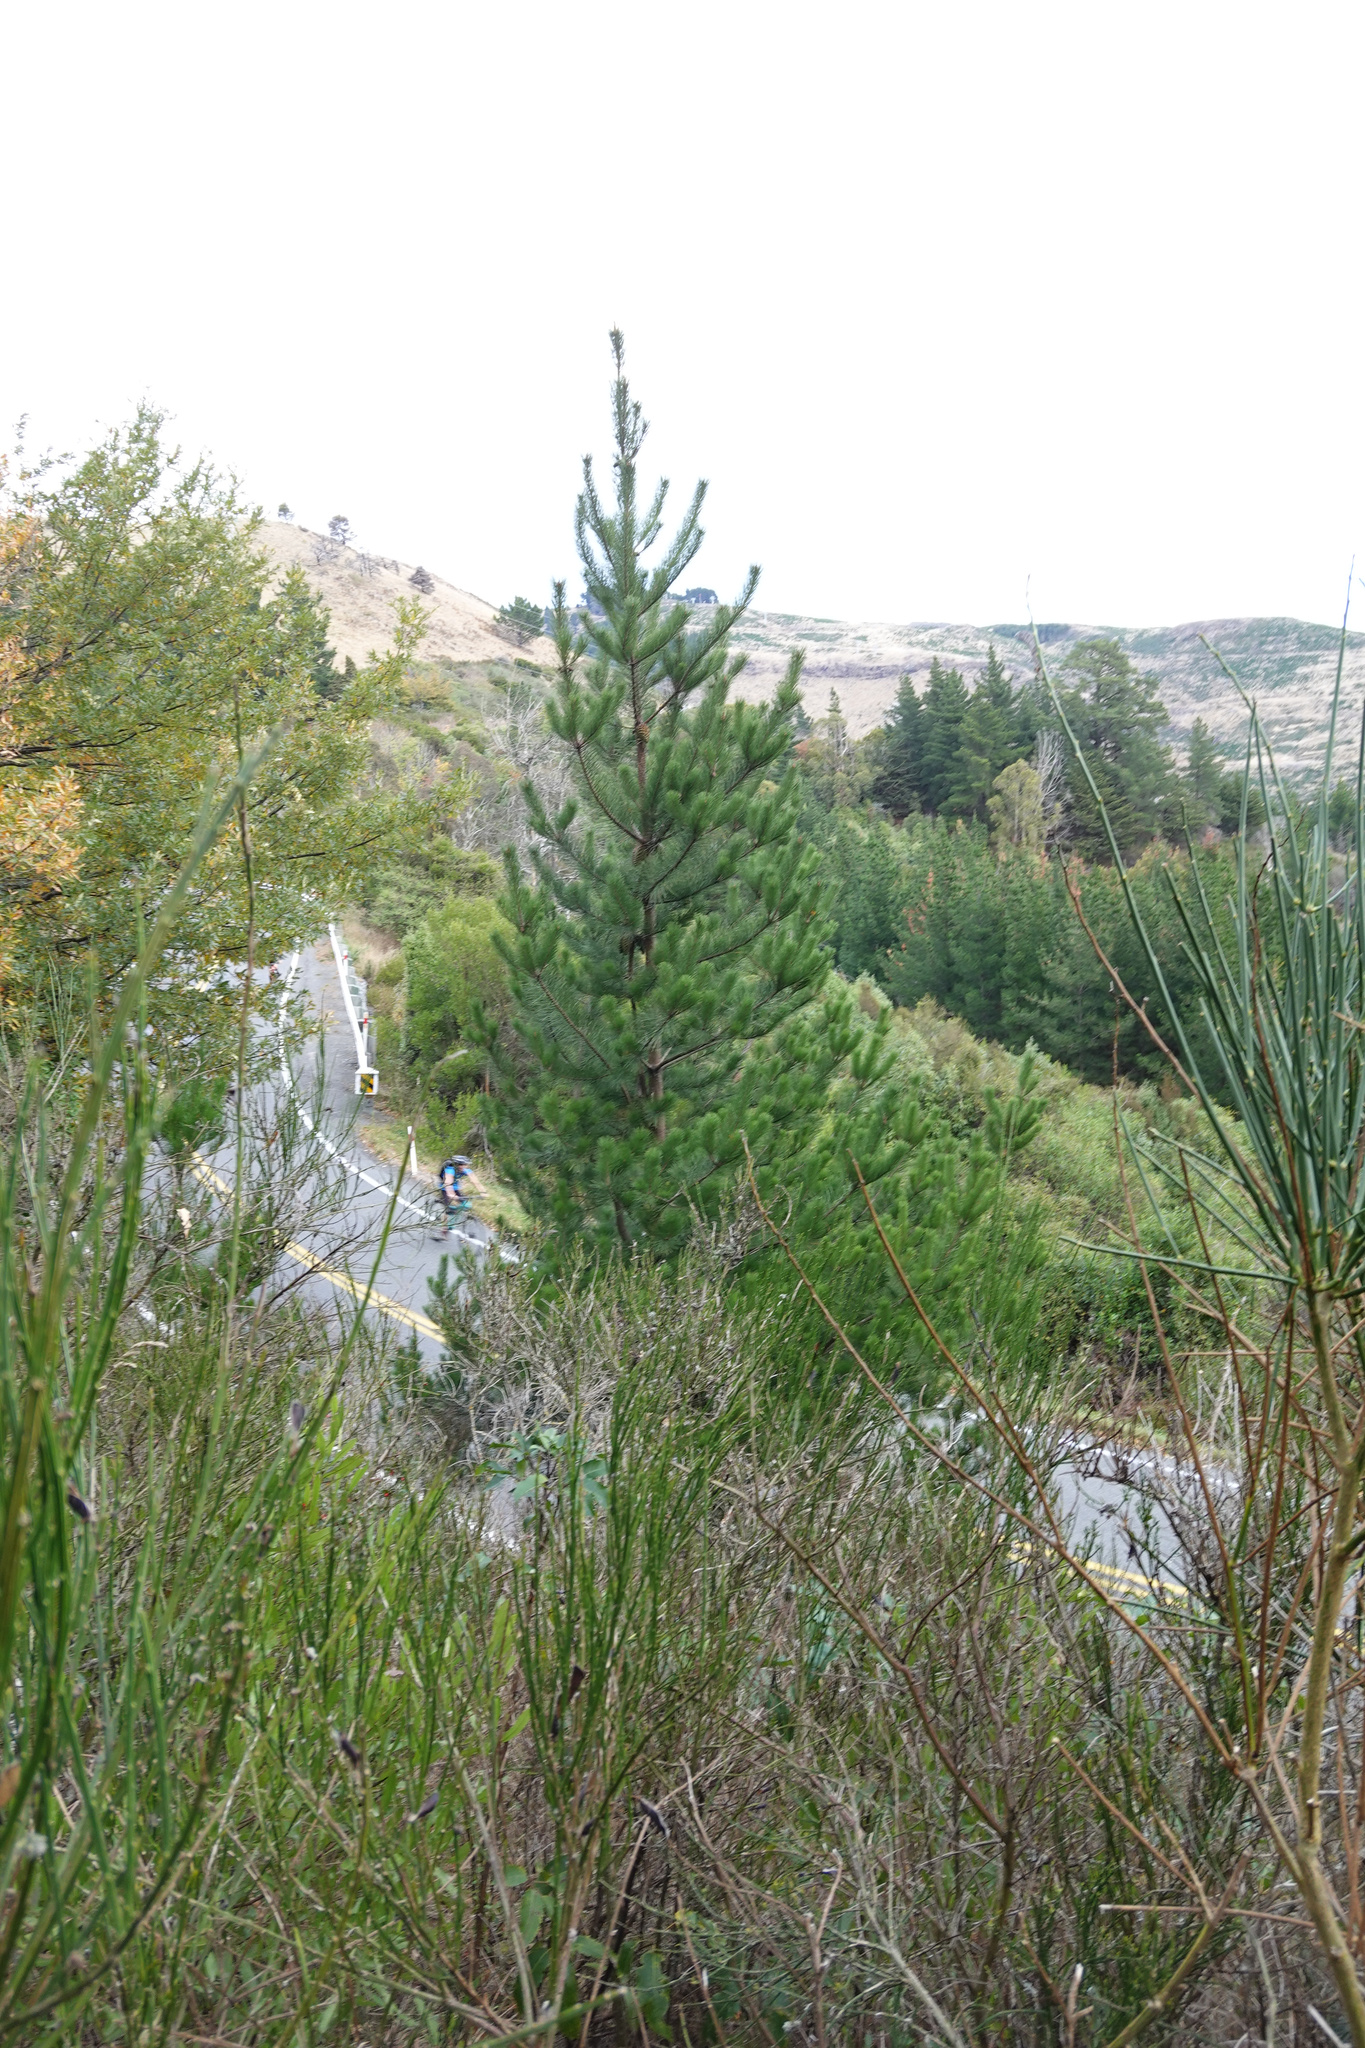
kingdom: Plantae
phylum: Tracheophyta
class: Pinopsida
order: Pinales
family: Pinaceae
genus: Pinus
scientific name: Pinus radiata
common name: Monterey pine
